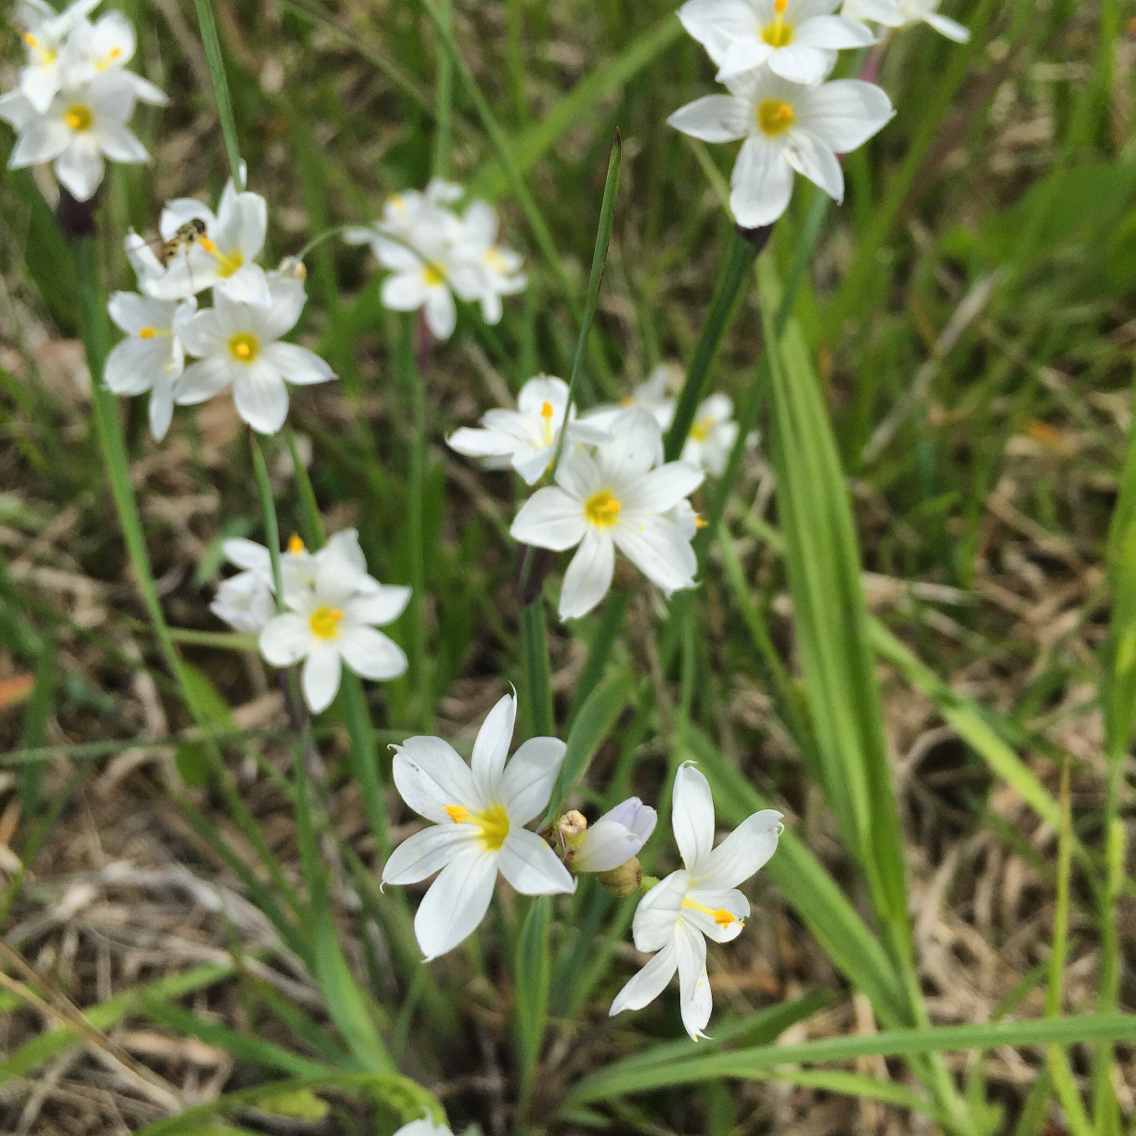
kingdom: Plantae
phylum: Tracheophyta
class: Liliopsida
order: Asparagales
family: Iridaceae
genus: Sisyrinchium
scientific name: Sisyrinchium albidum
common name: Pale blue-eyed-grass
